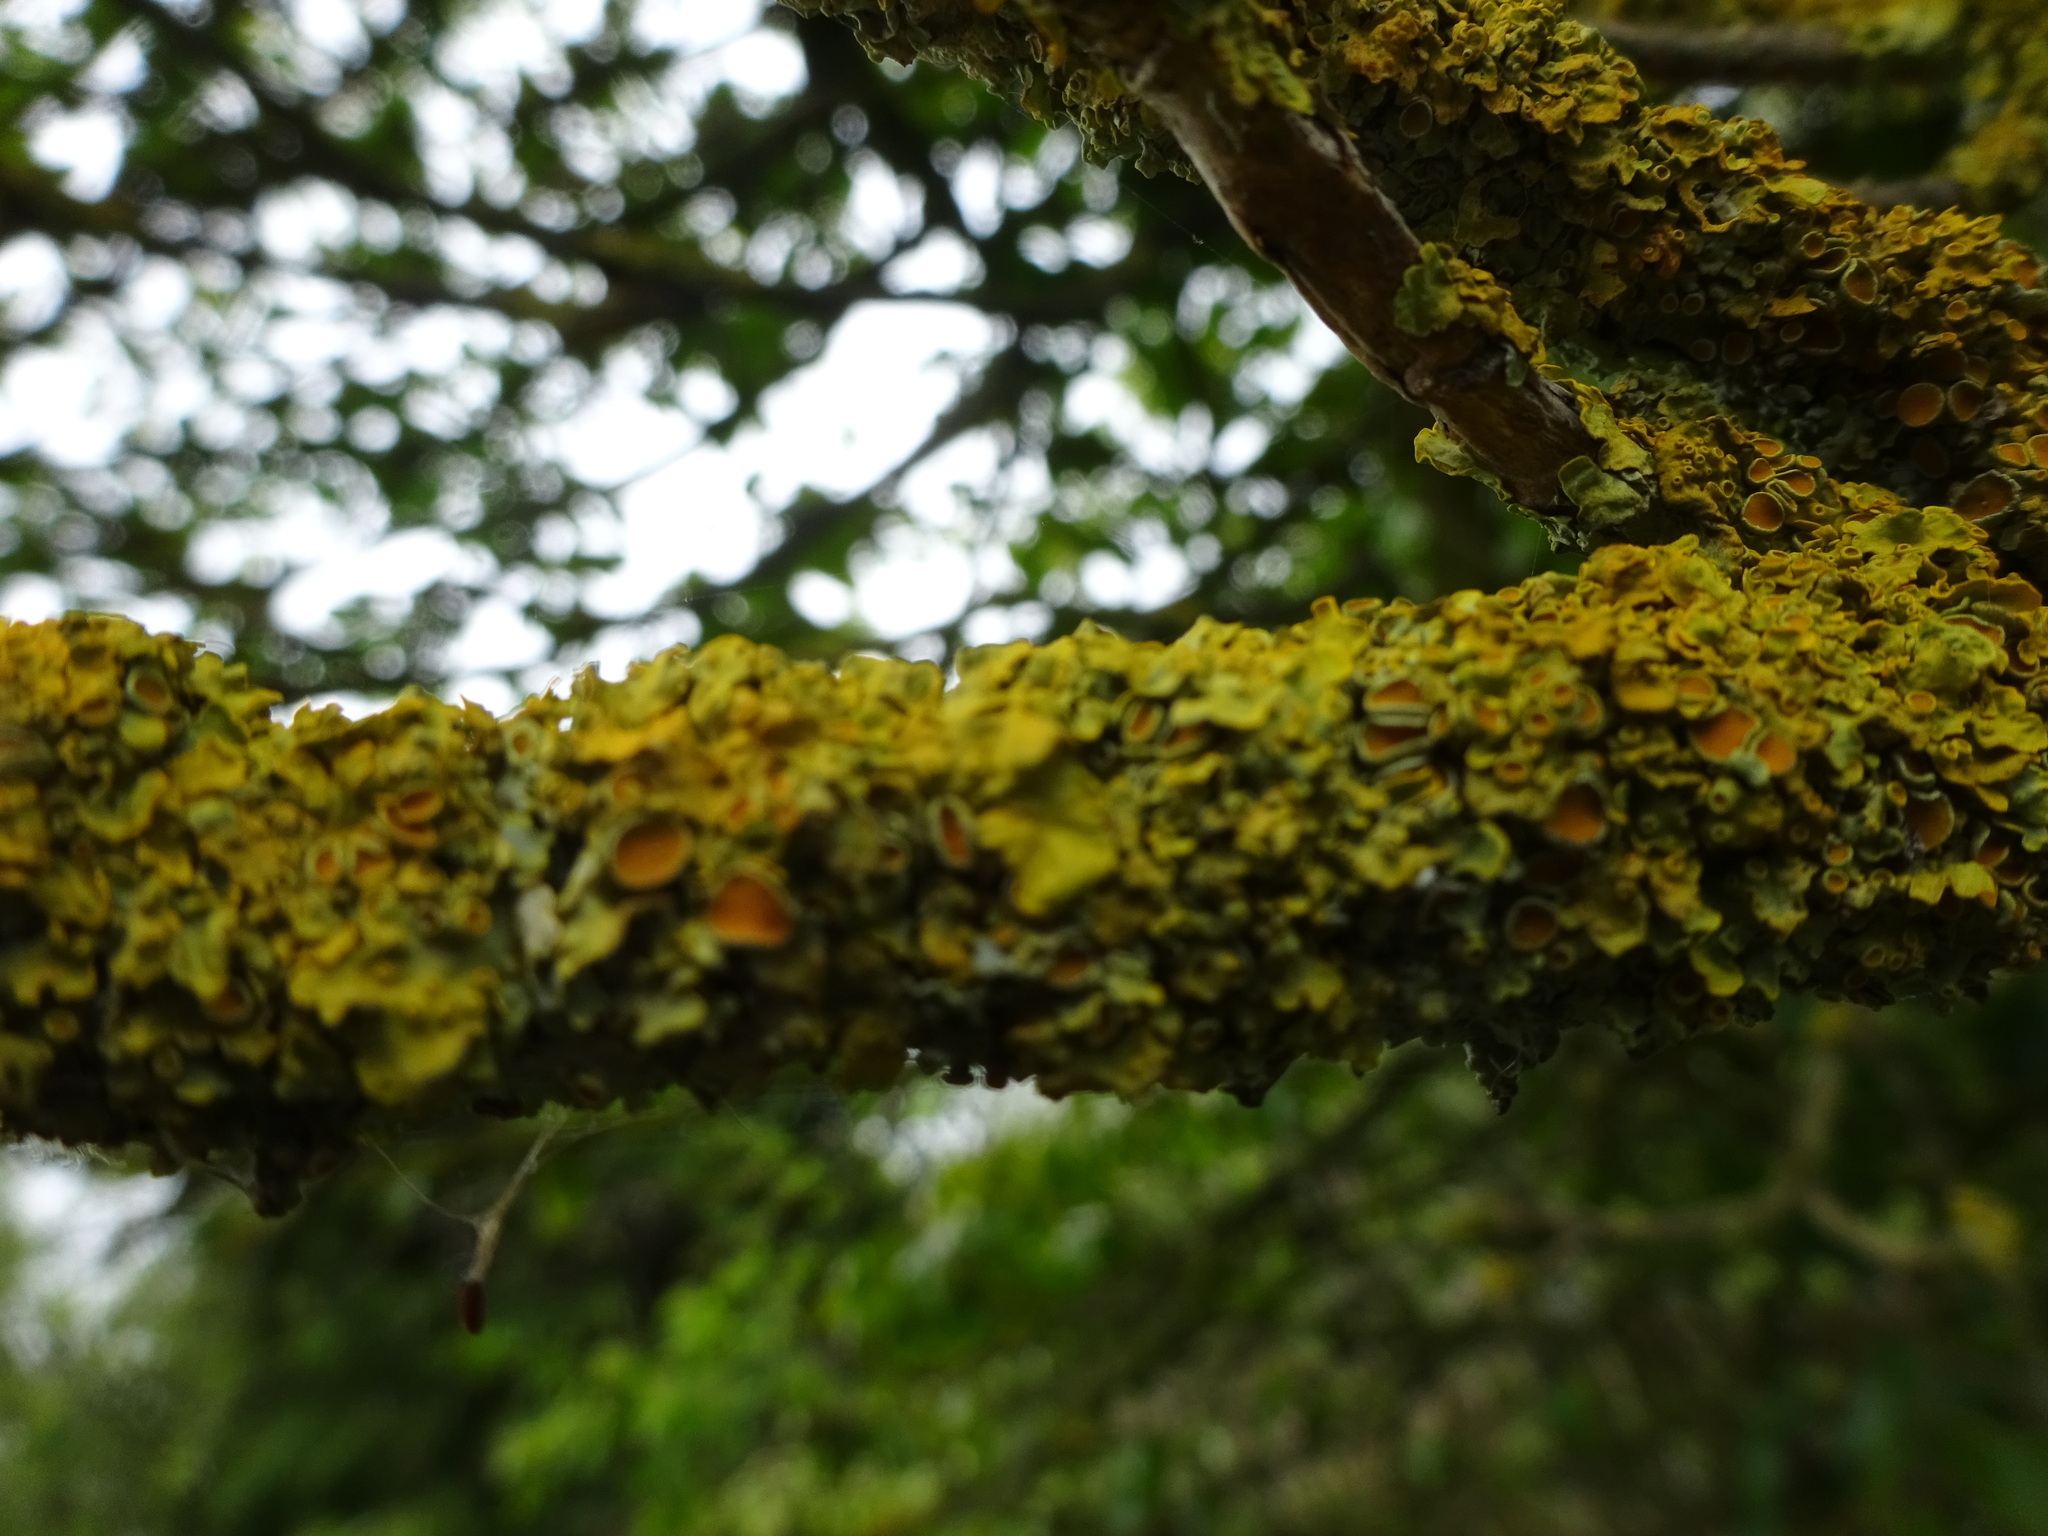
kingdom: Fungi
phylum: Ascomycota
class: Lecanoromycetes
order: Teloschistales
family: Teloschistaceae
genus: Xanthoria
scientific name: Xanthoria parietina
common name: Common orange lichen
